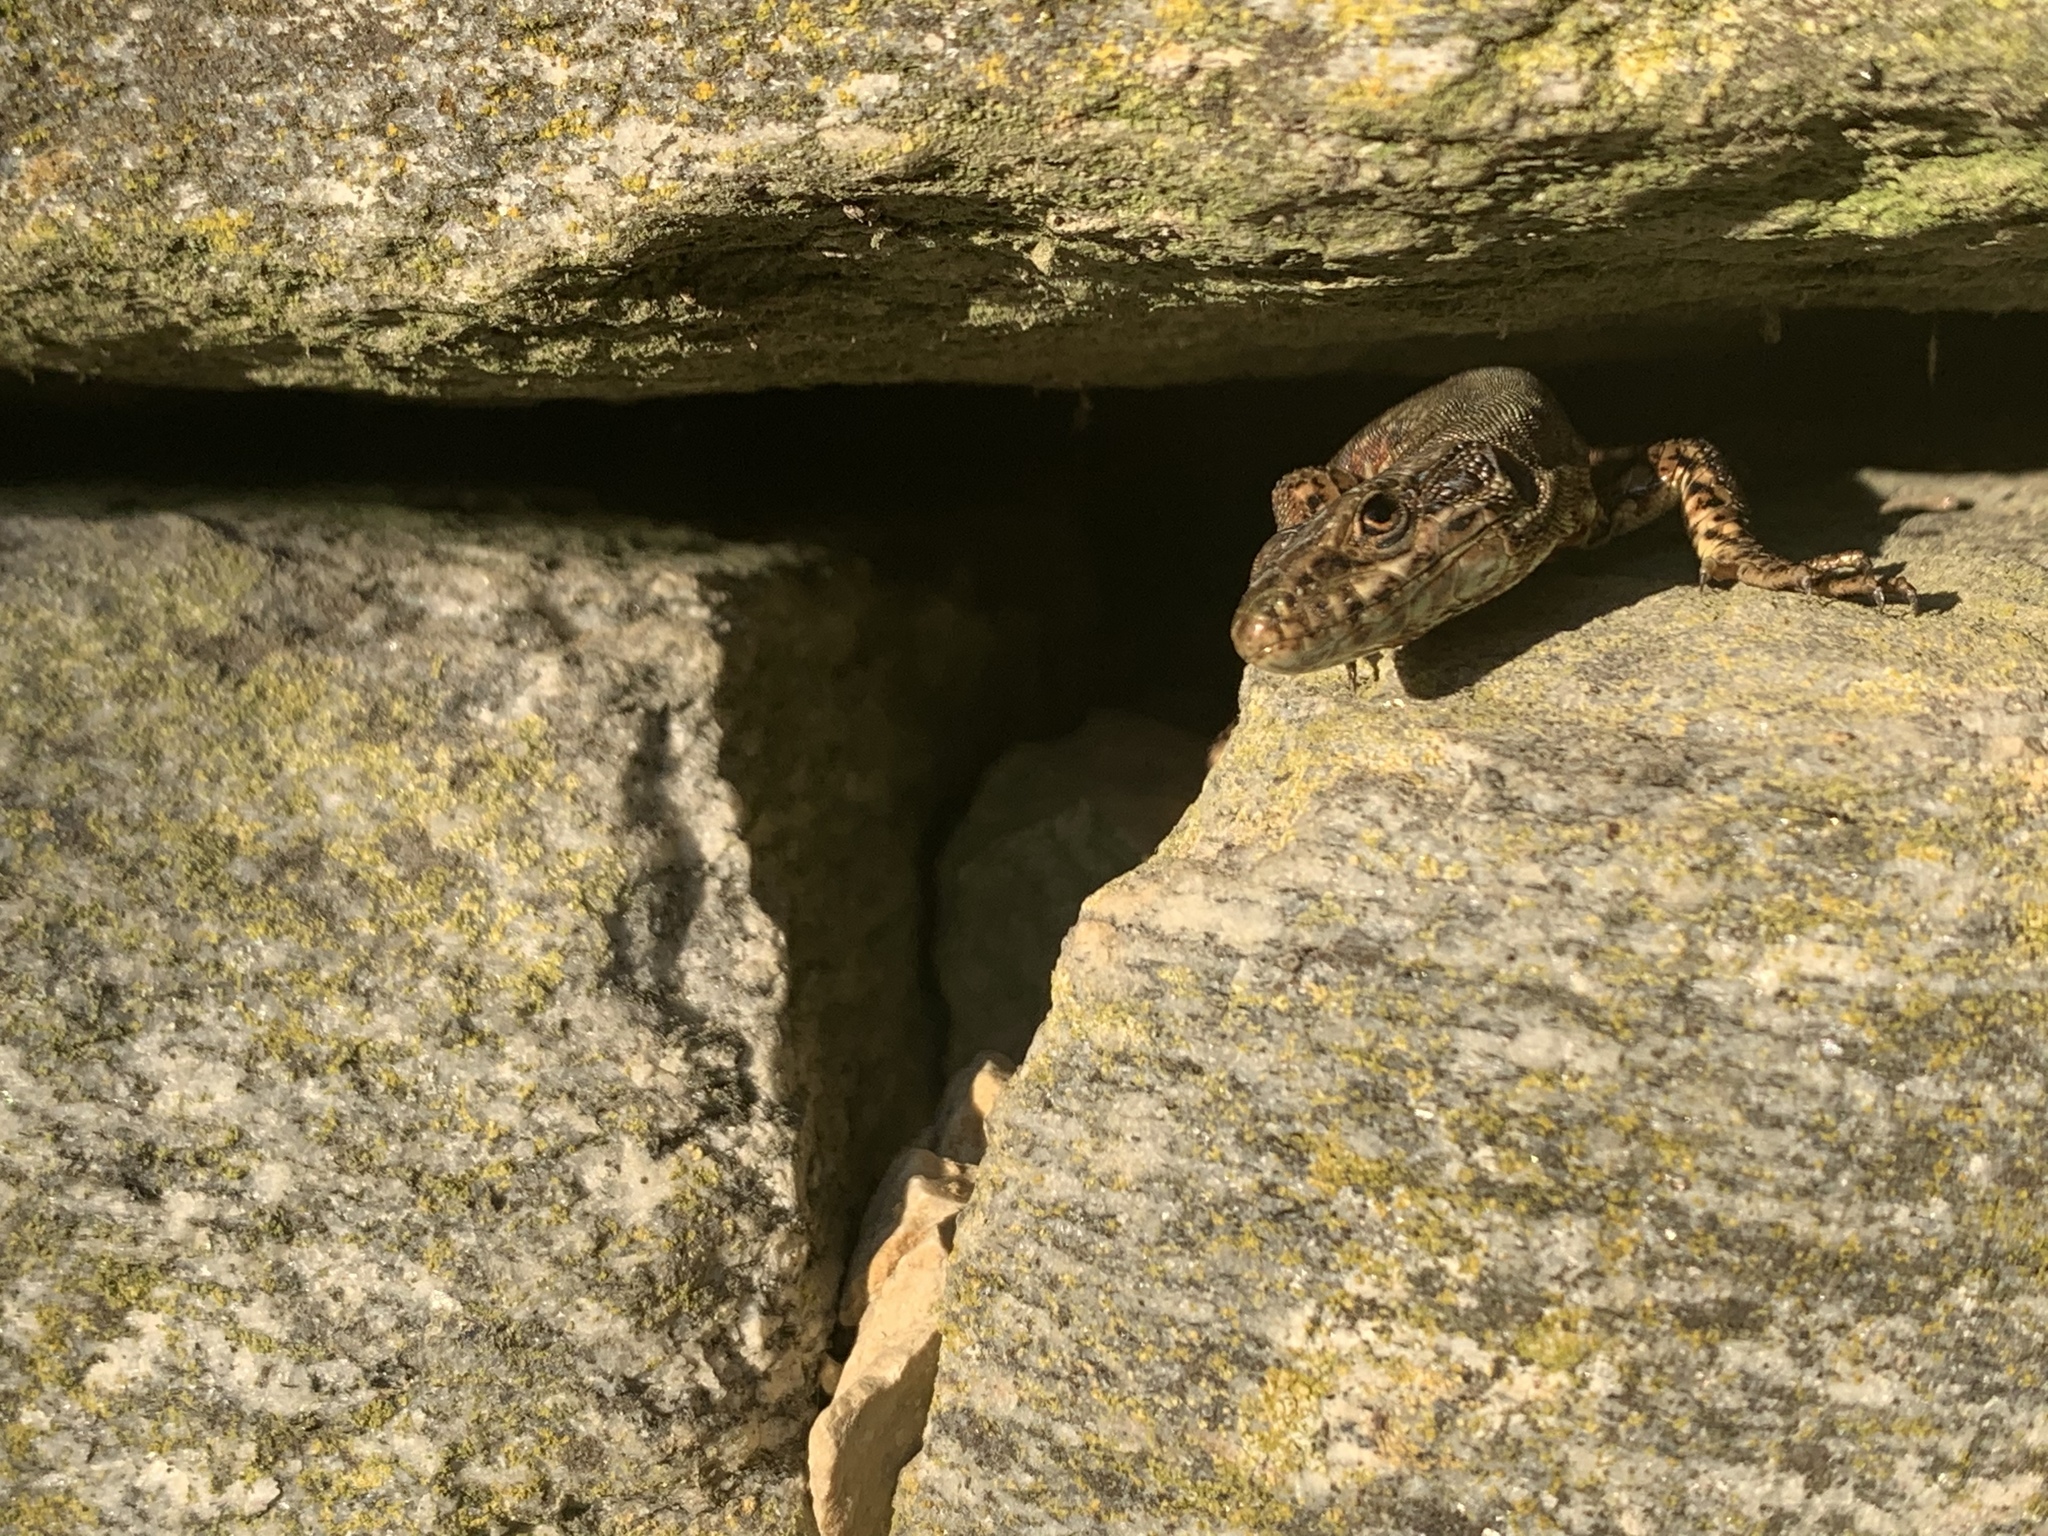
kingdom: Animalia
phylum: Chordata
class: Squamata
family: Lacertidae
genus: Podarcis
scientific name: Podarcis muralis
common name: Common wall lizard
